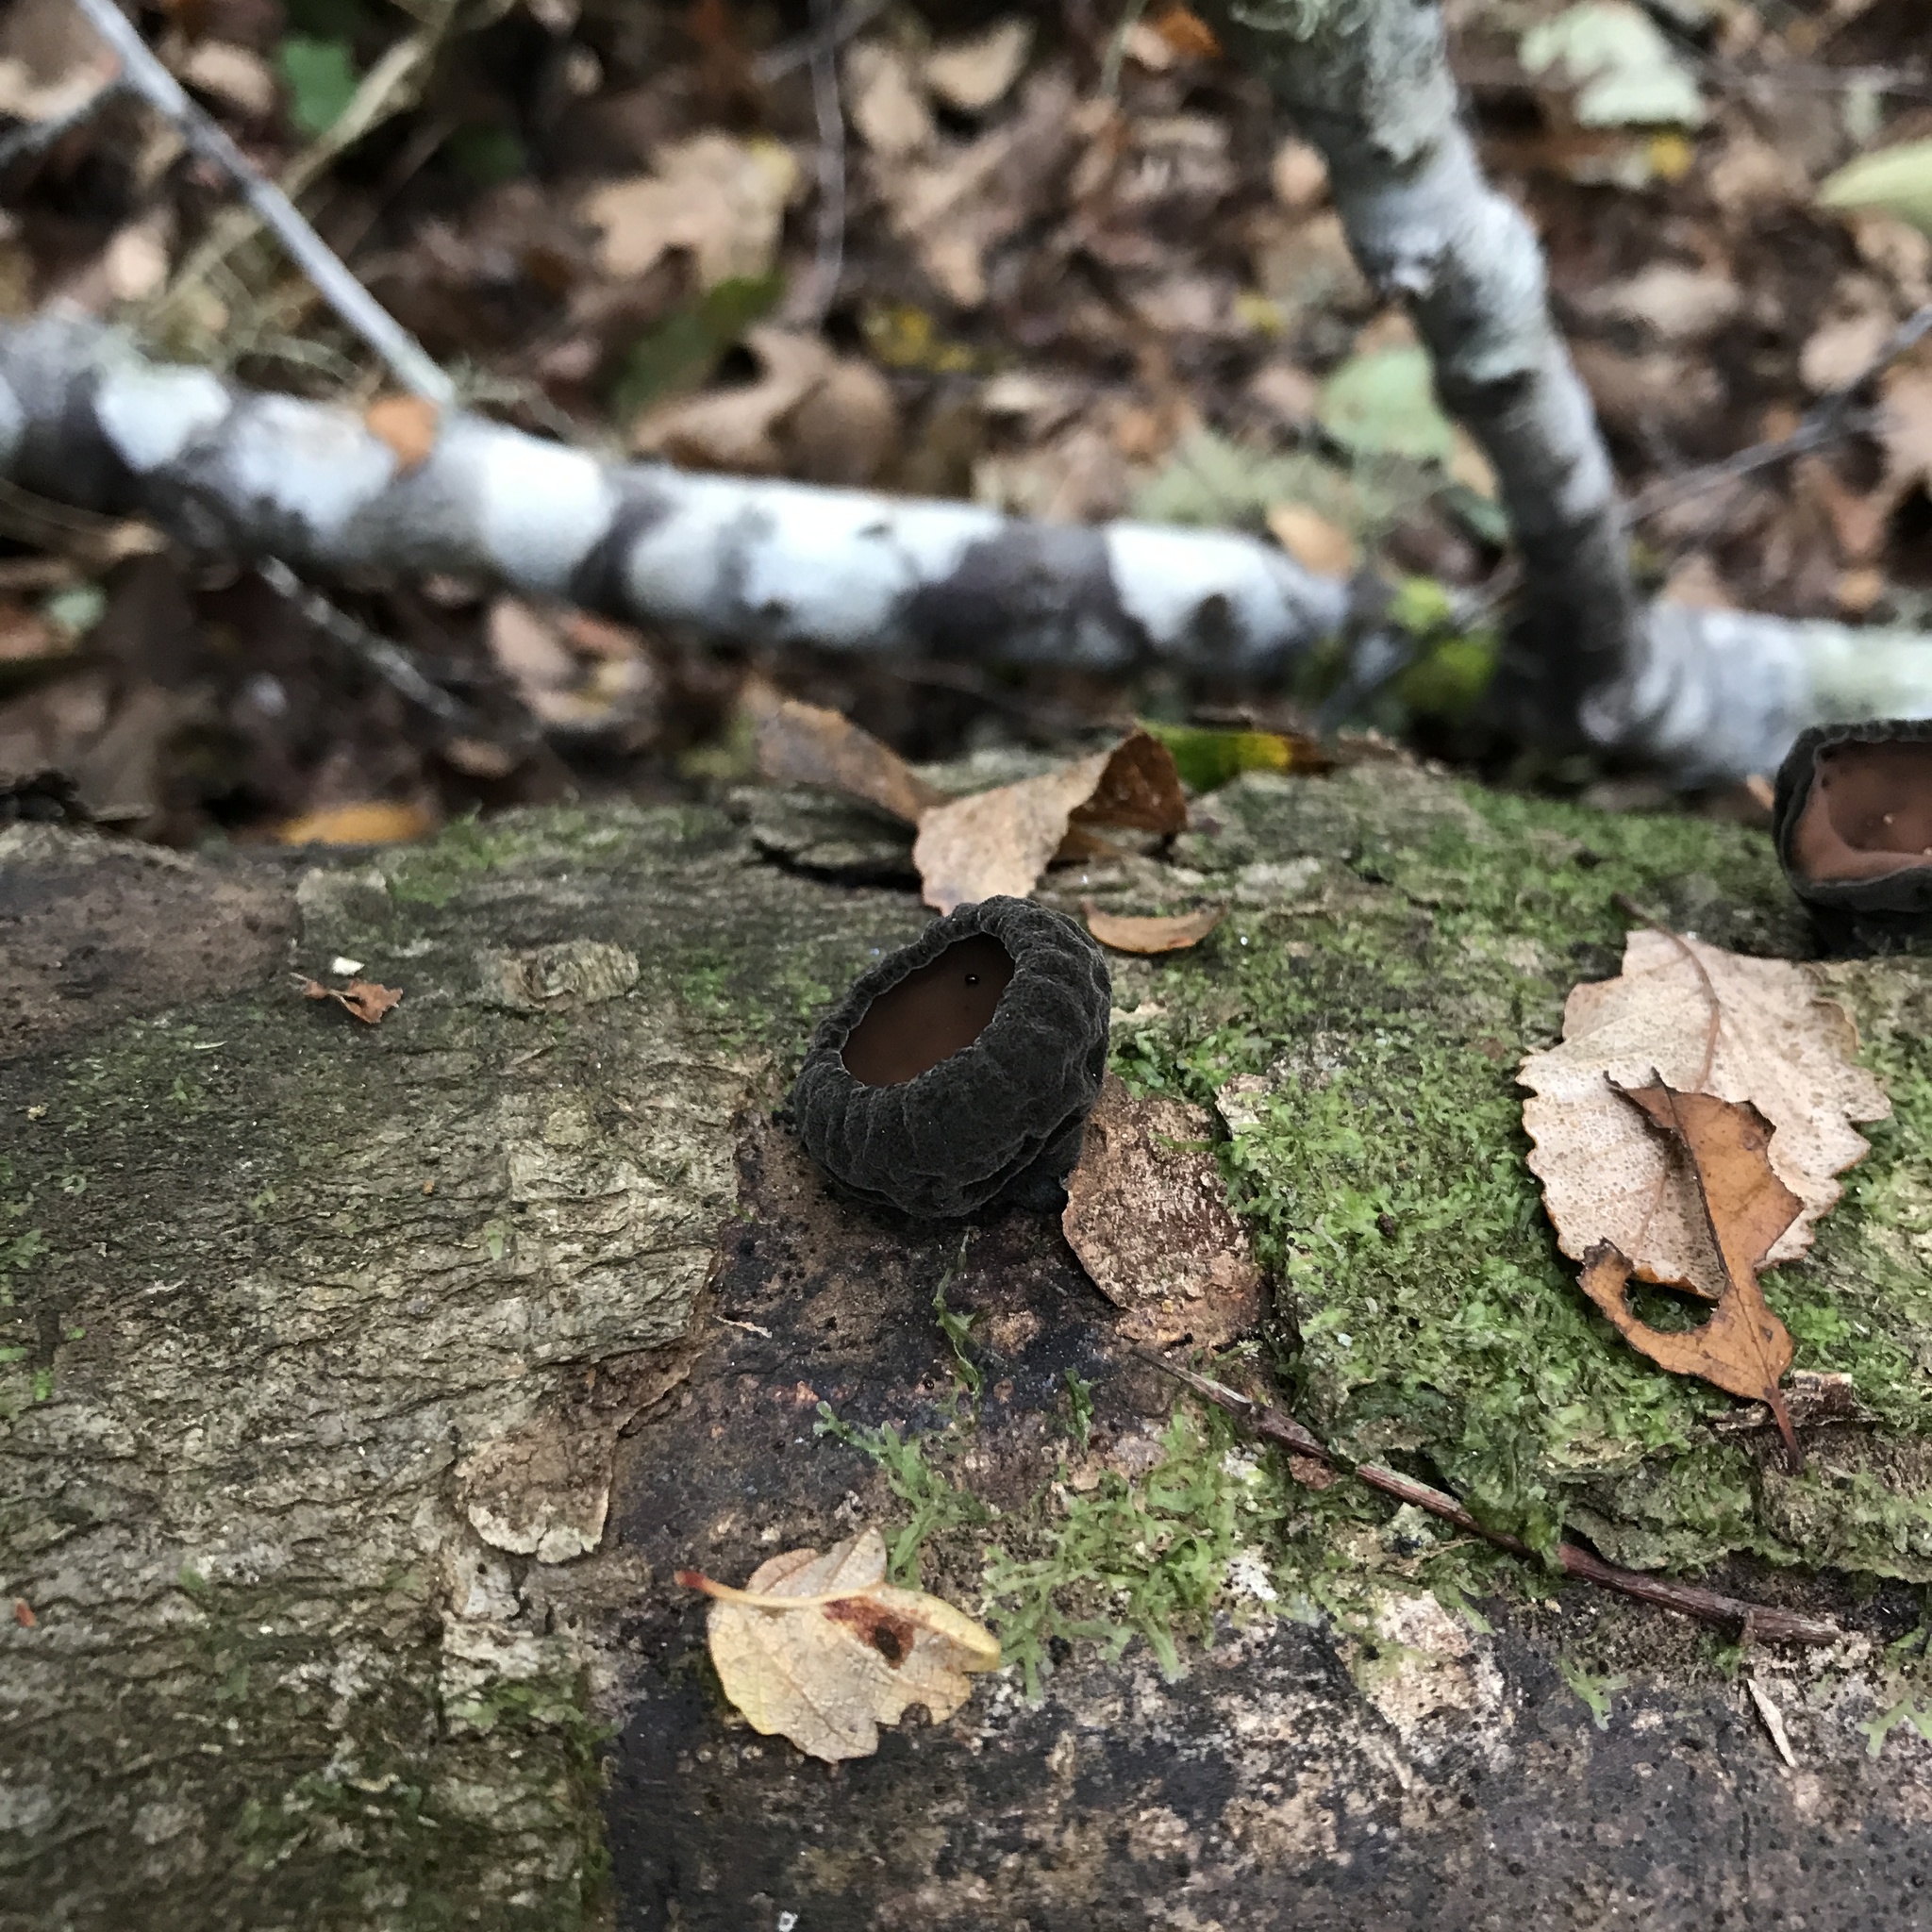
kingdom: Fungi
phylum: Ascomycota
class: Pezizomycetes
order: Pezizales
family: Sarcosomataceae
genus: Plectania
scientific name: Plectania chilensis
